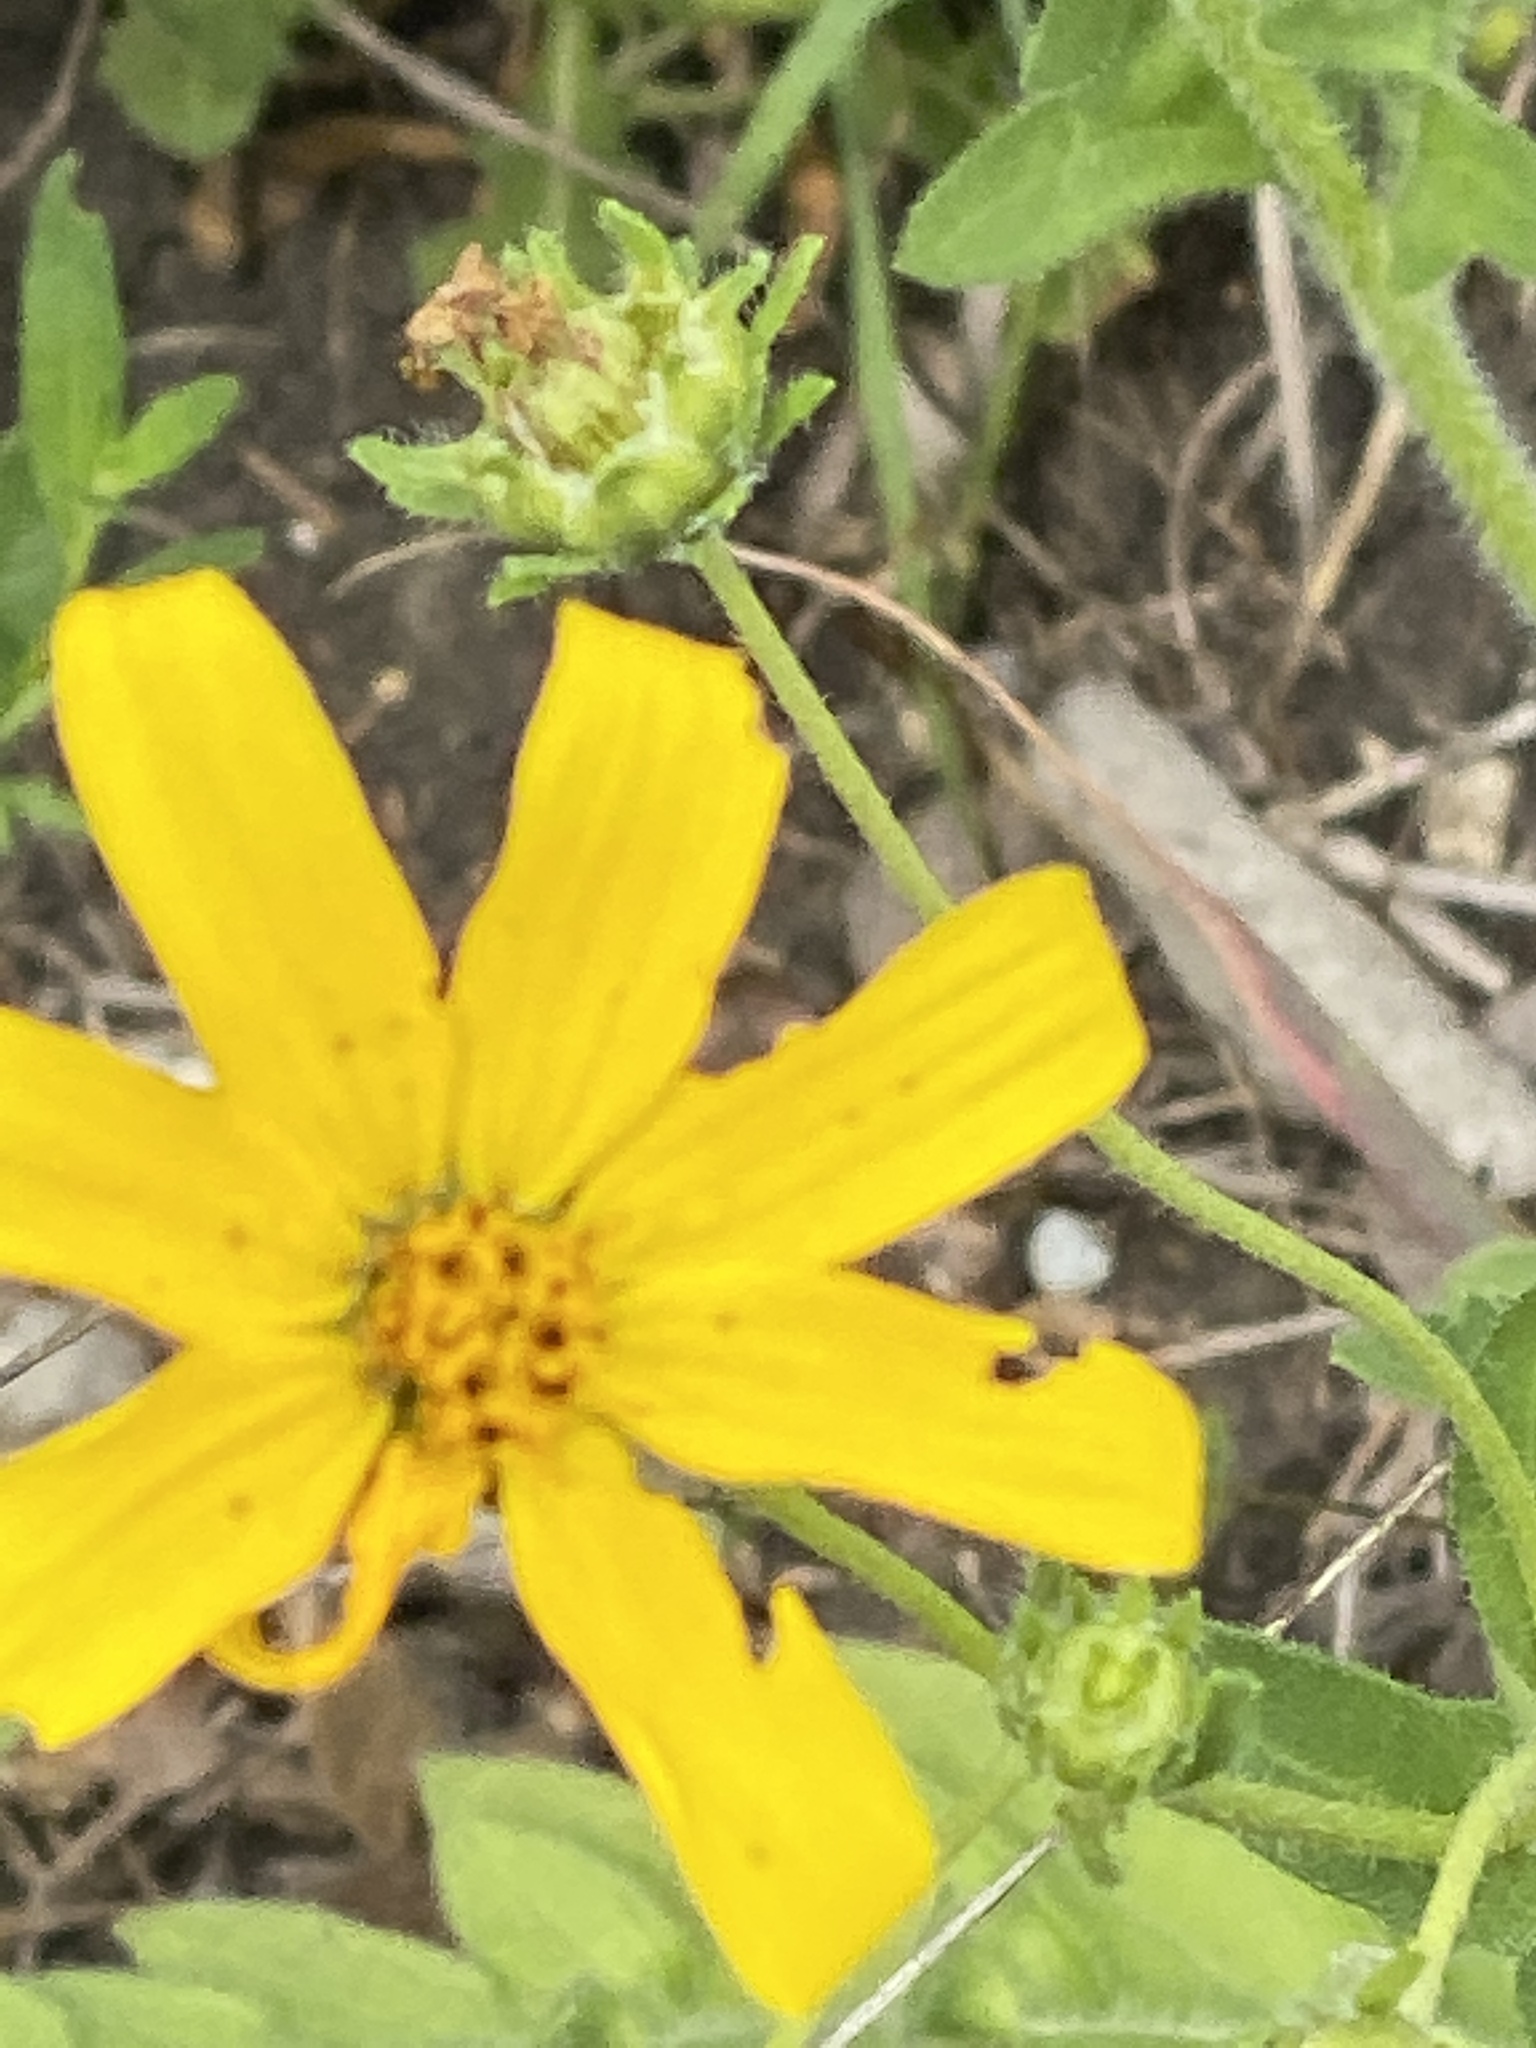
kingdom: Plantae
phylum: Tracheophyta
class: Magnoliopsida
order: Asterales
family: Asteraceae
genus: Engelmannia
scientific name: Engelmannia peristenia
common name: Engelmann's daisy
